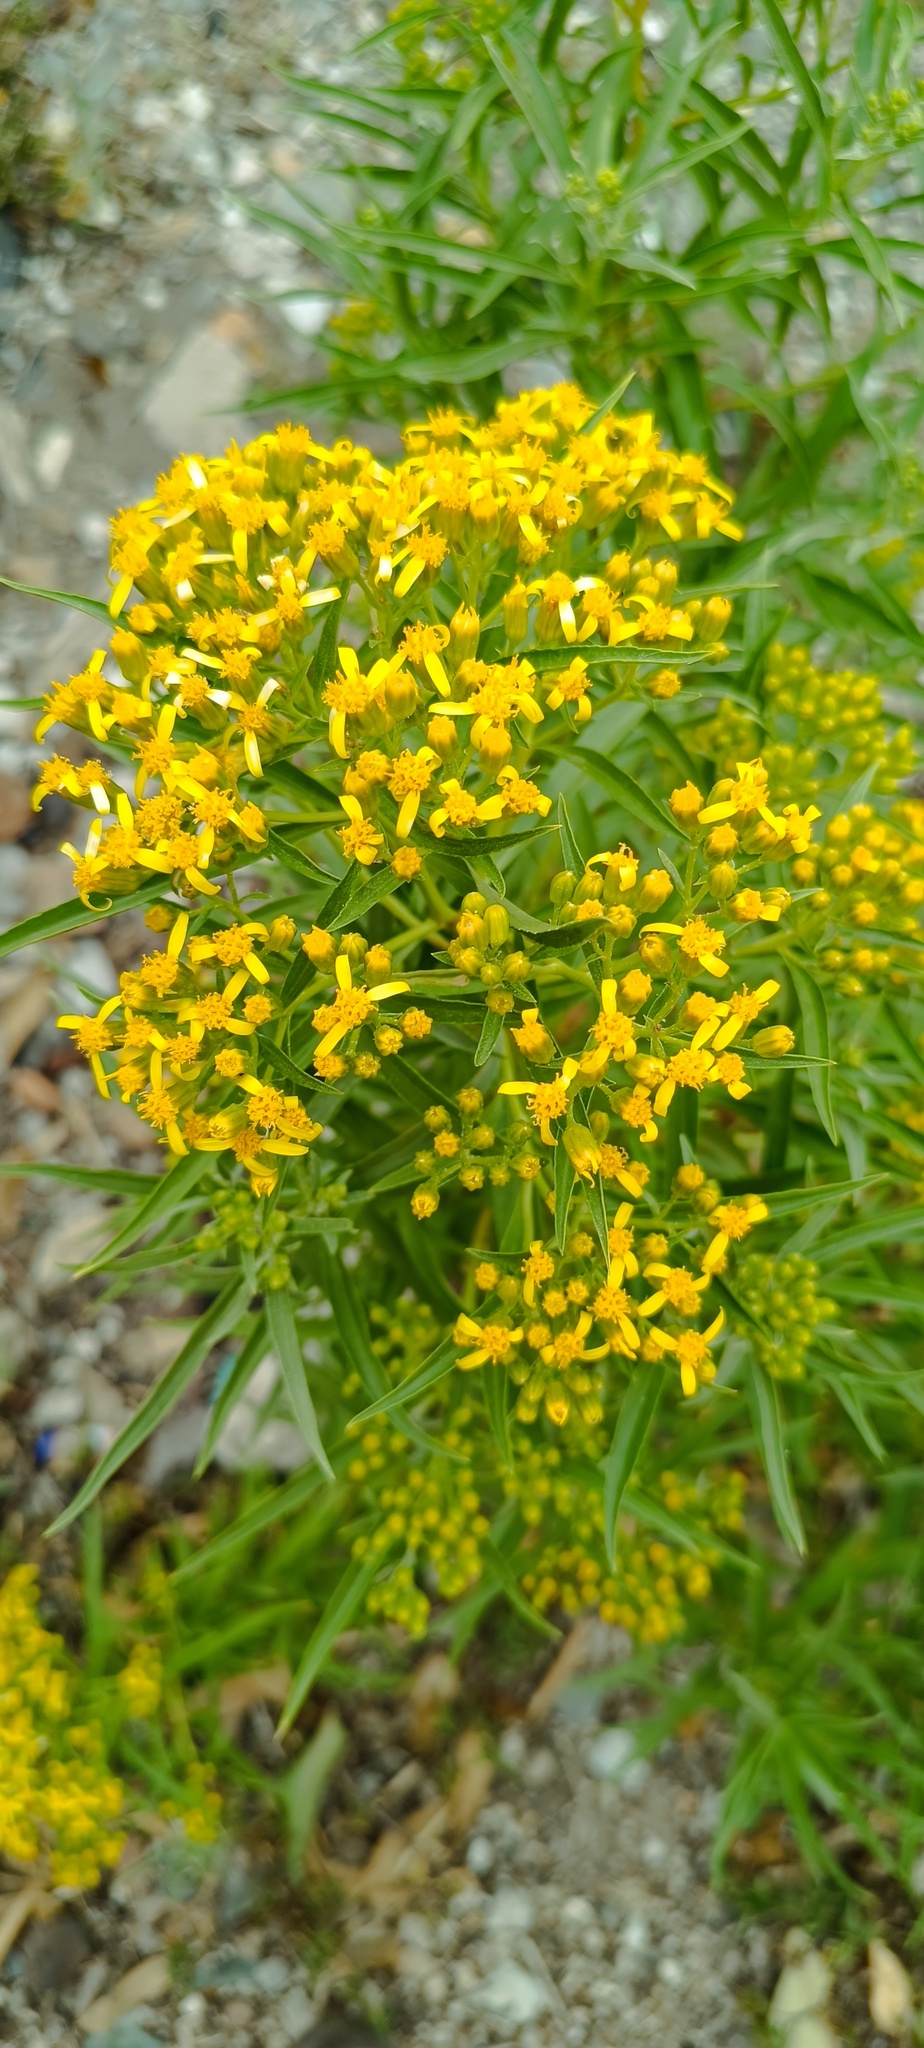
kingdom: Plantae
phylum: Tracheophyta
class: Magnoliopsida
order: Asterales
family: Asteraceae
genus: Barkleyanthus
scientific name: Barkleyanthus salicifolius
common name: Willow ragwort
